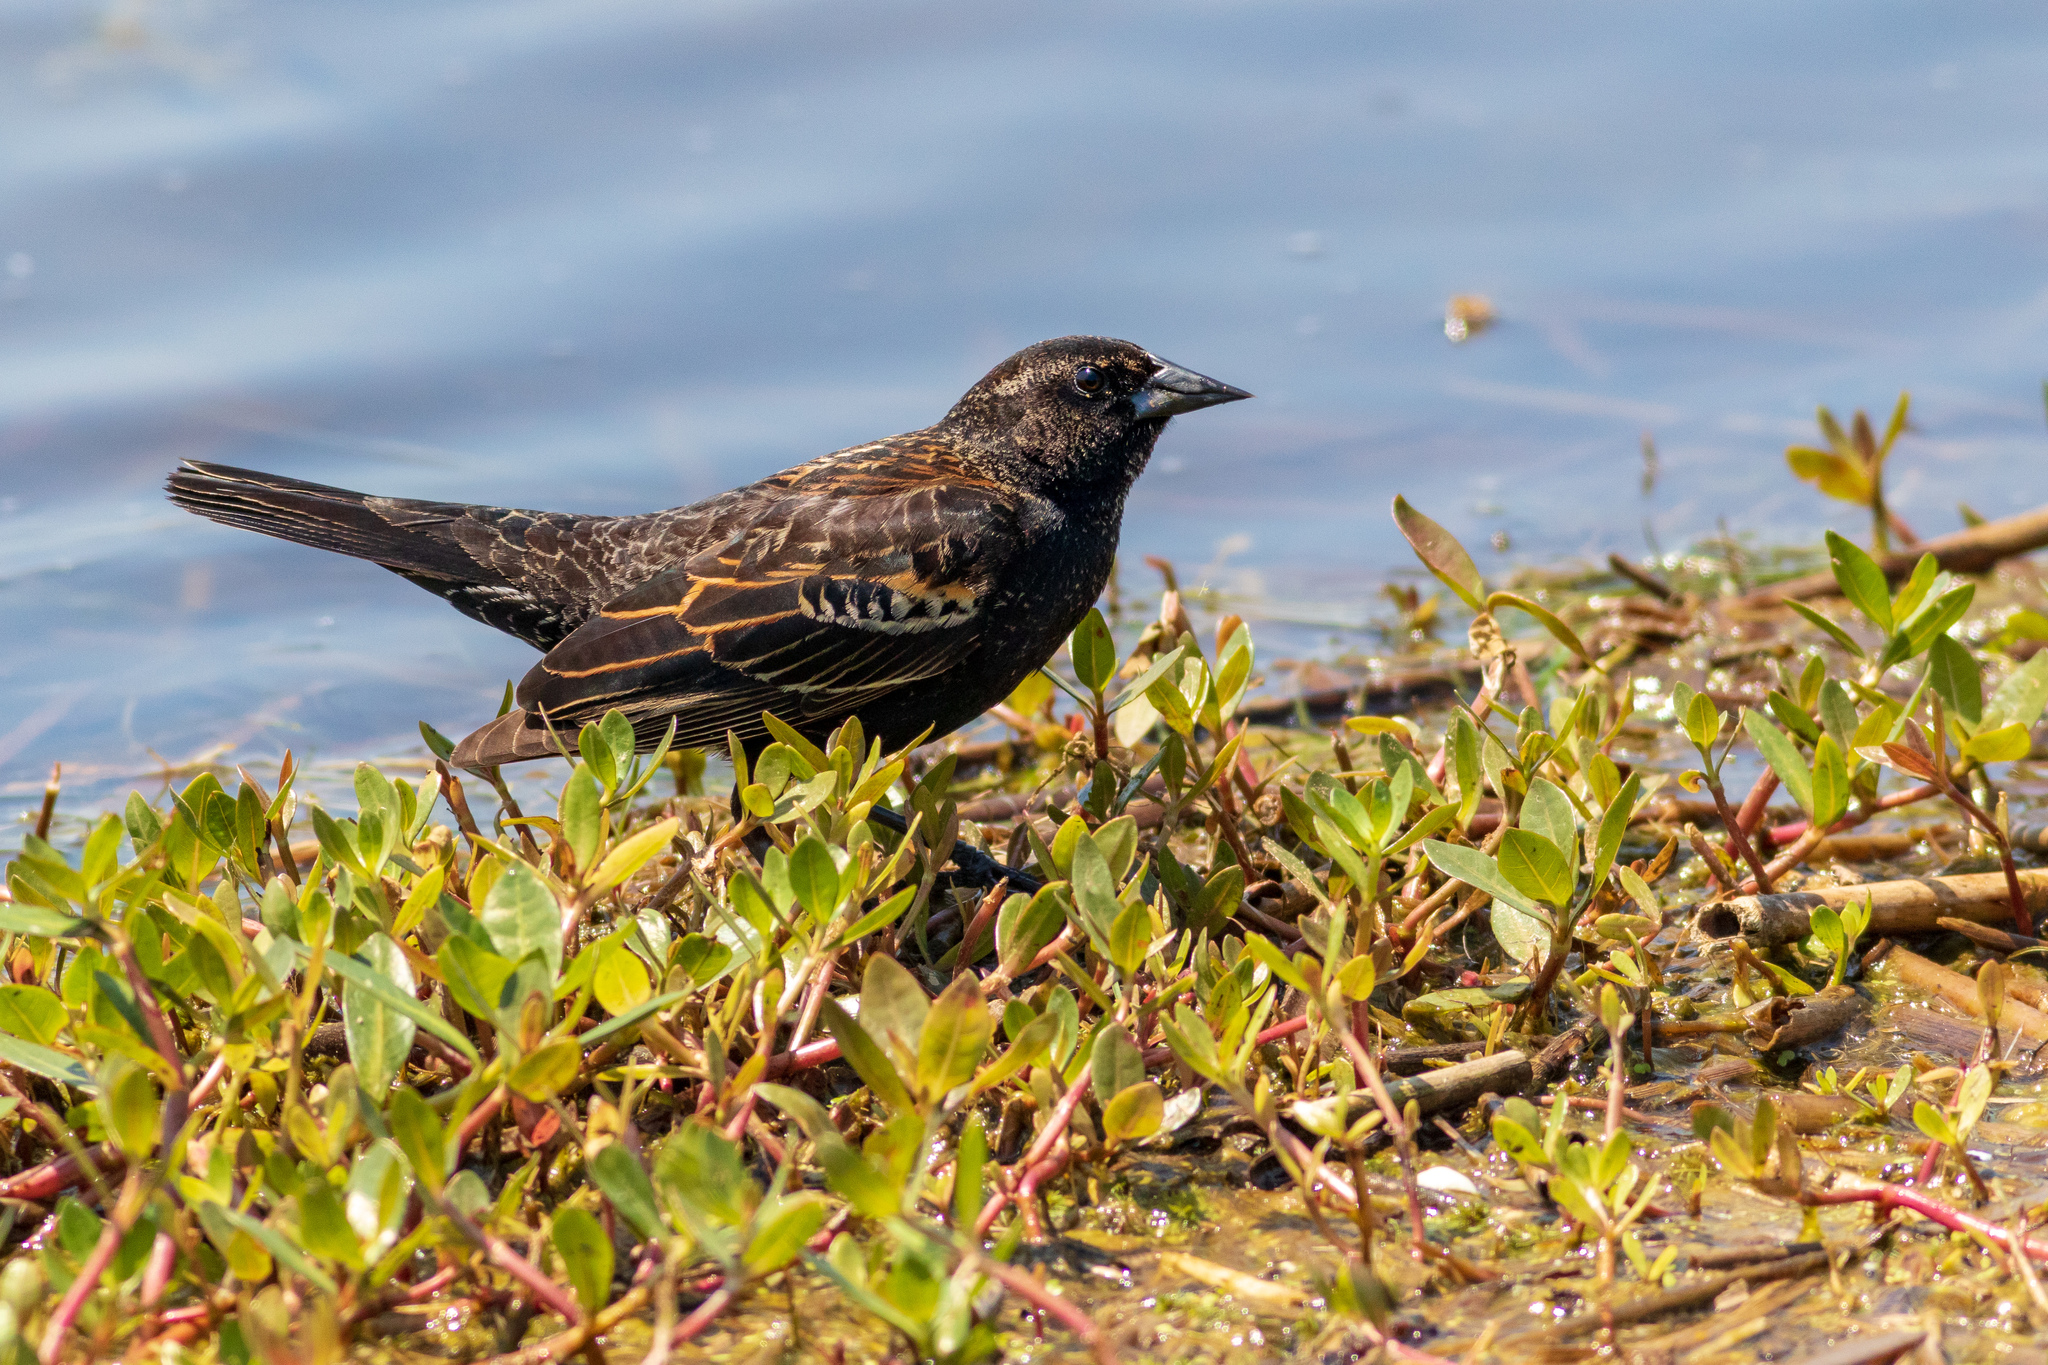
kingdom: Animalia
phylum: Chordata
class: Aves
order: Passeriformes
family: Icteridae
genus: Agelaius
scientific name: Agelaius phoeniceus
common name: Red-winged blackbird
